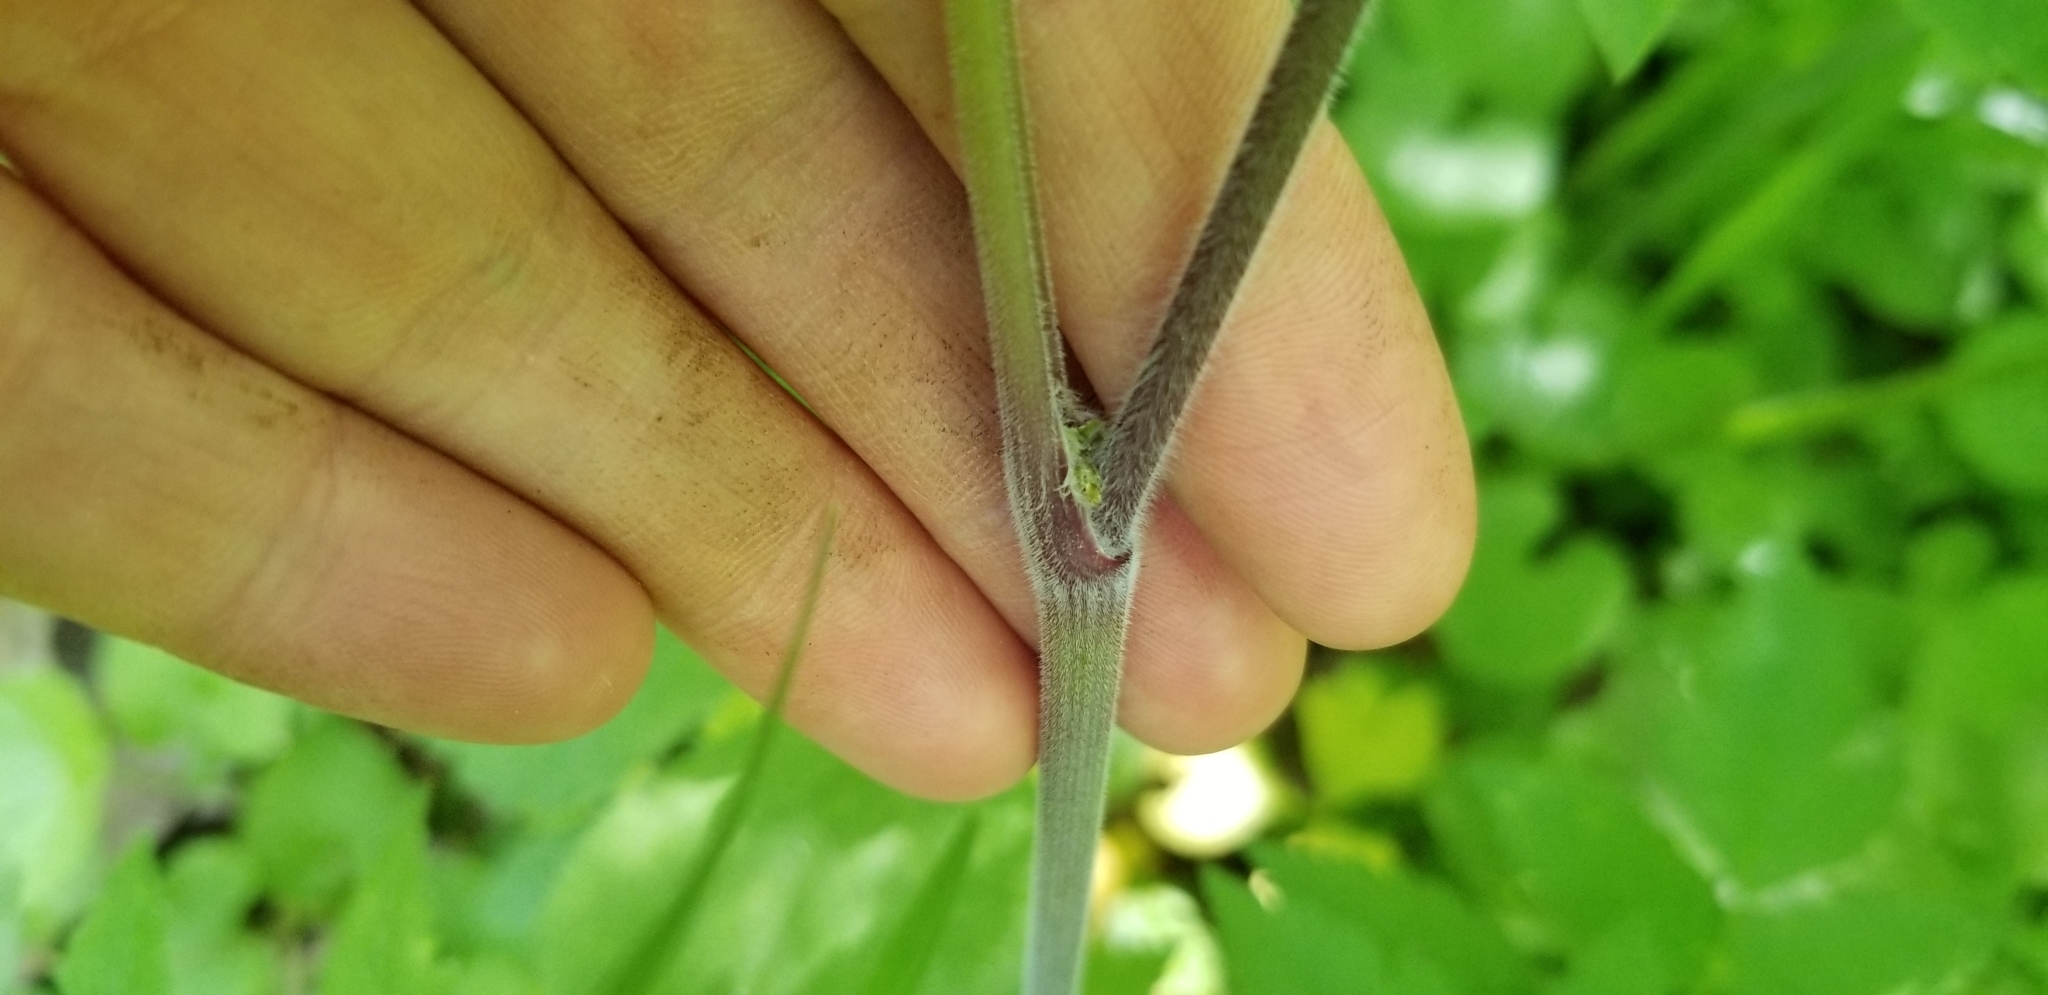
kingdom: Plantae
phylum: Tracheophyta
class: Magnoliopsida
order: Apiales
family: Apiaceae
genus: Osmorhiza
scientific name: Osmorhiza longistylis
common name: Smooth sweet cicely
